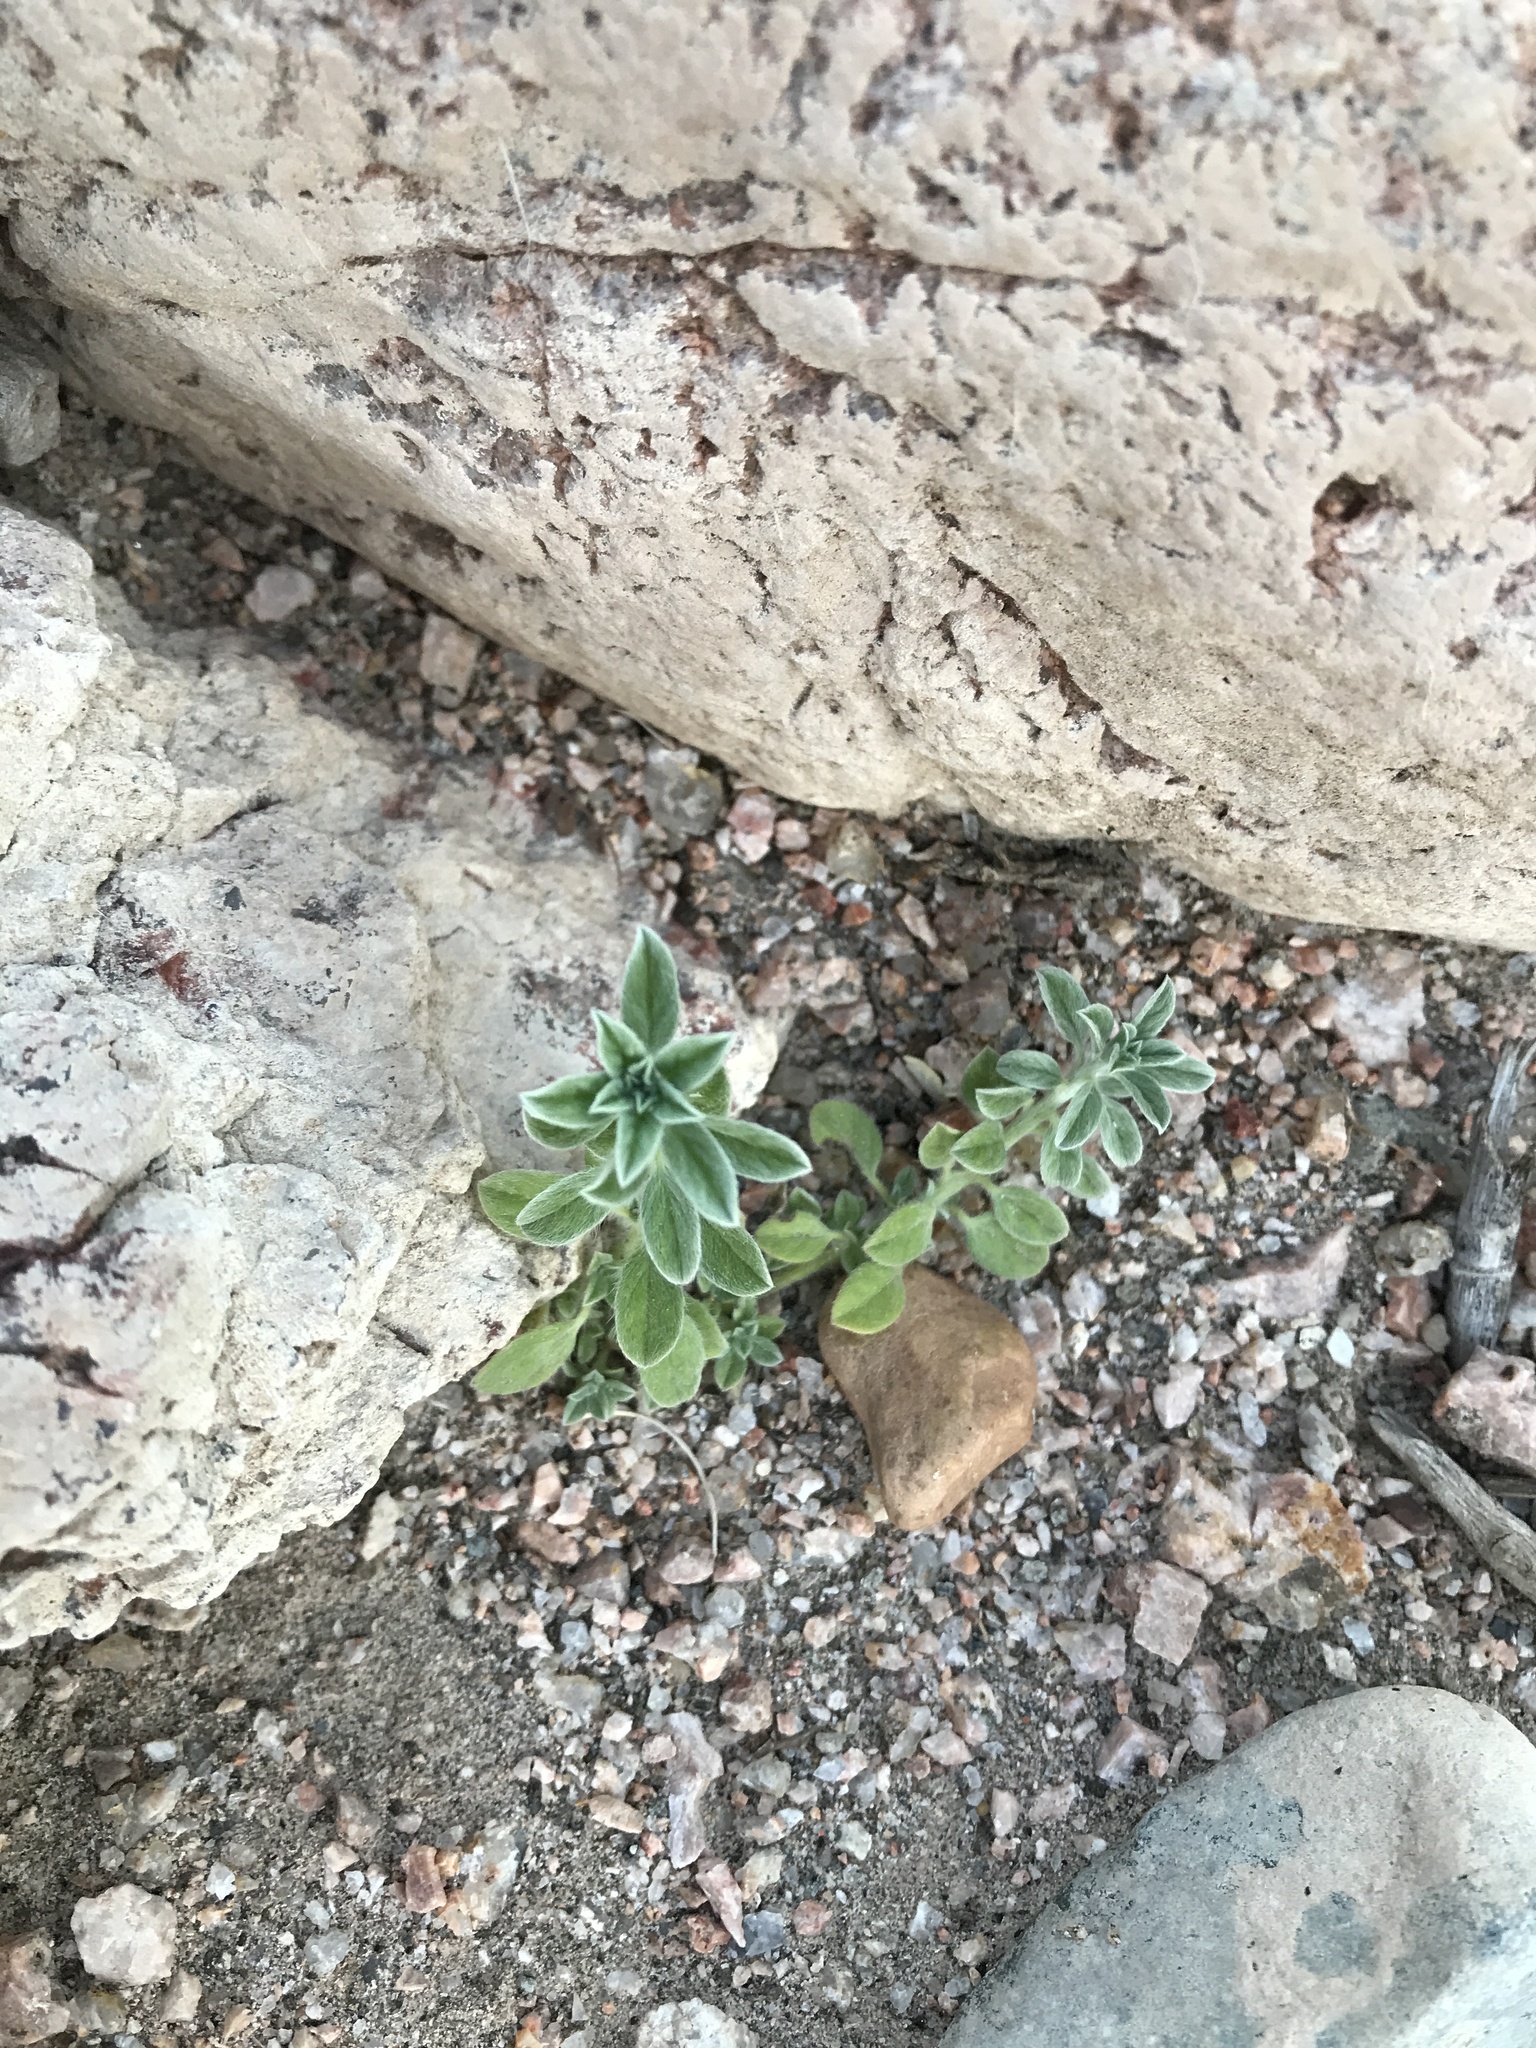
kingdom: Plantae
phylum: Tracheophyta
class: Magnoliopsida
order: Boraginales
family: Heliotropiaceae
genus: Euploca
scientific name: Euploca procumbens
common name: Fourspike heliotrope
